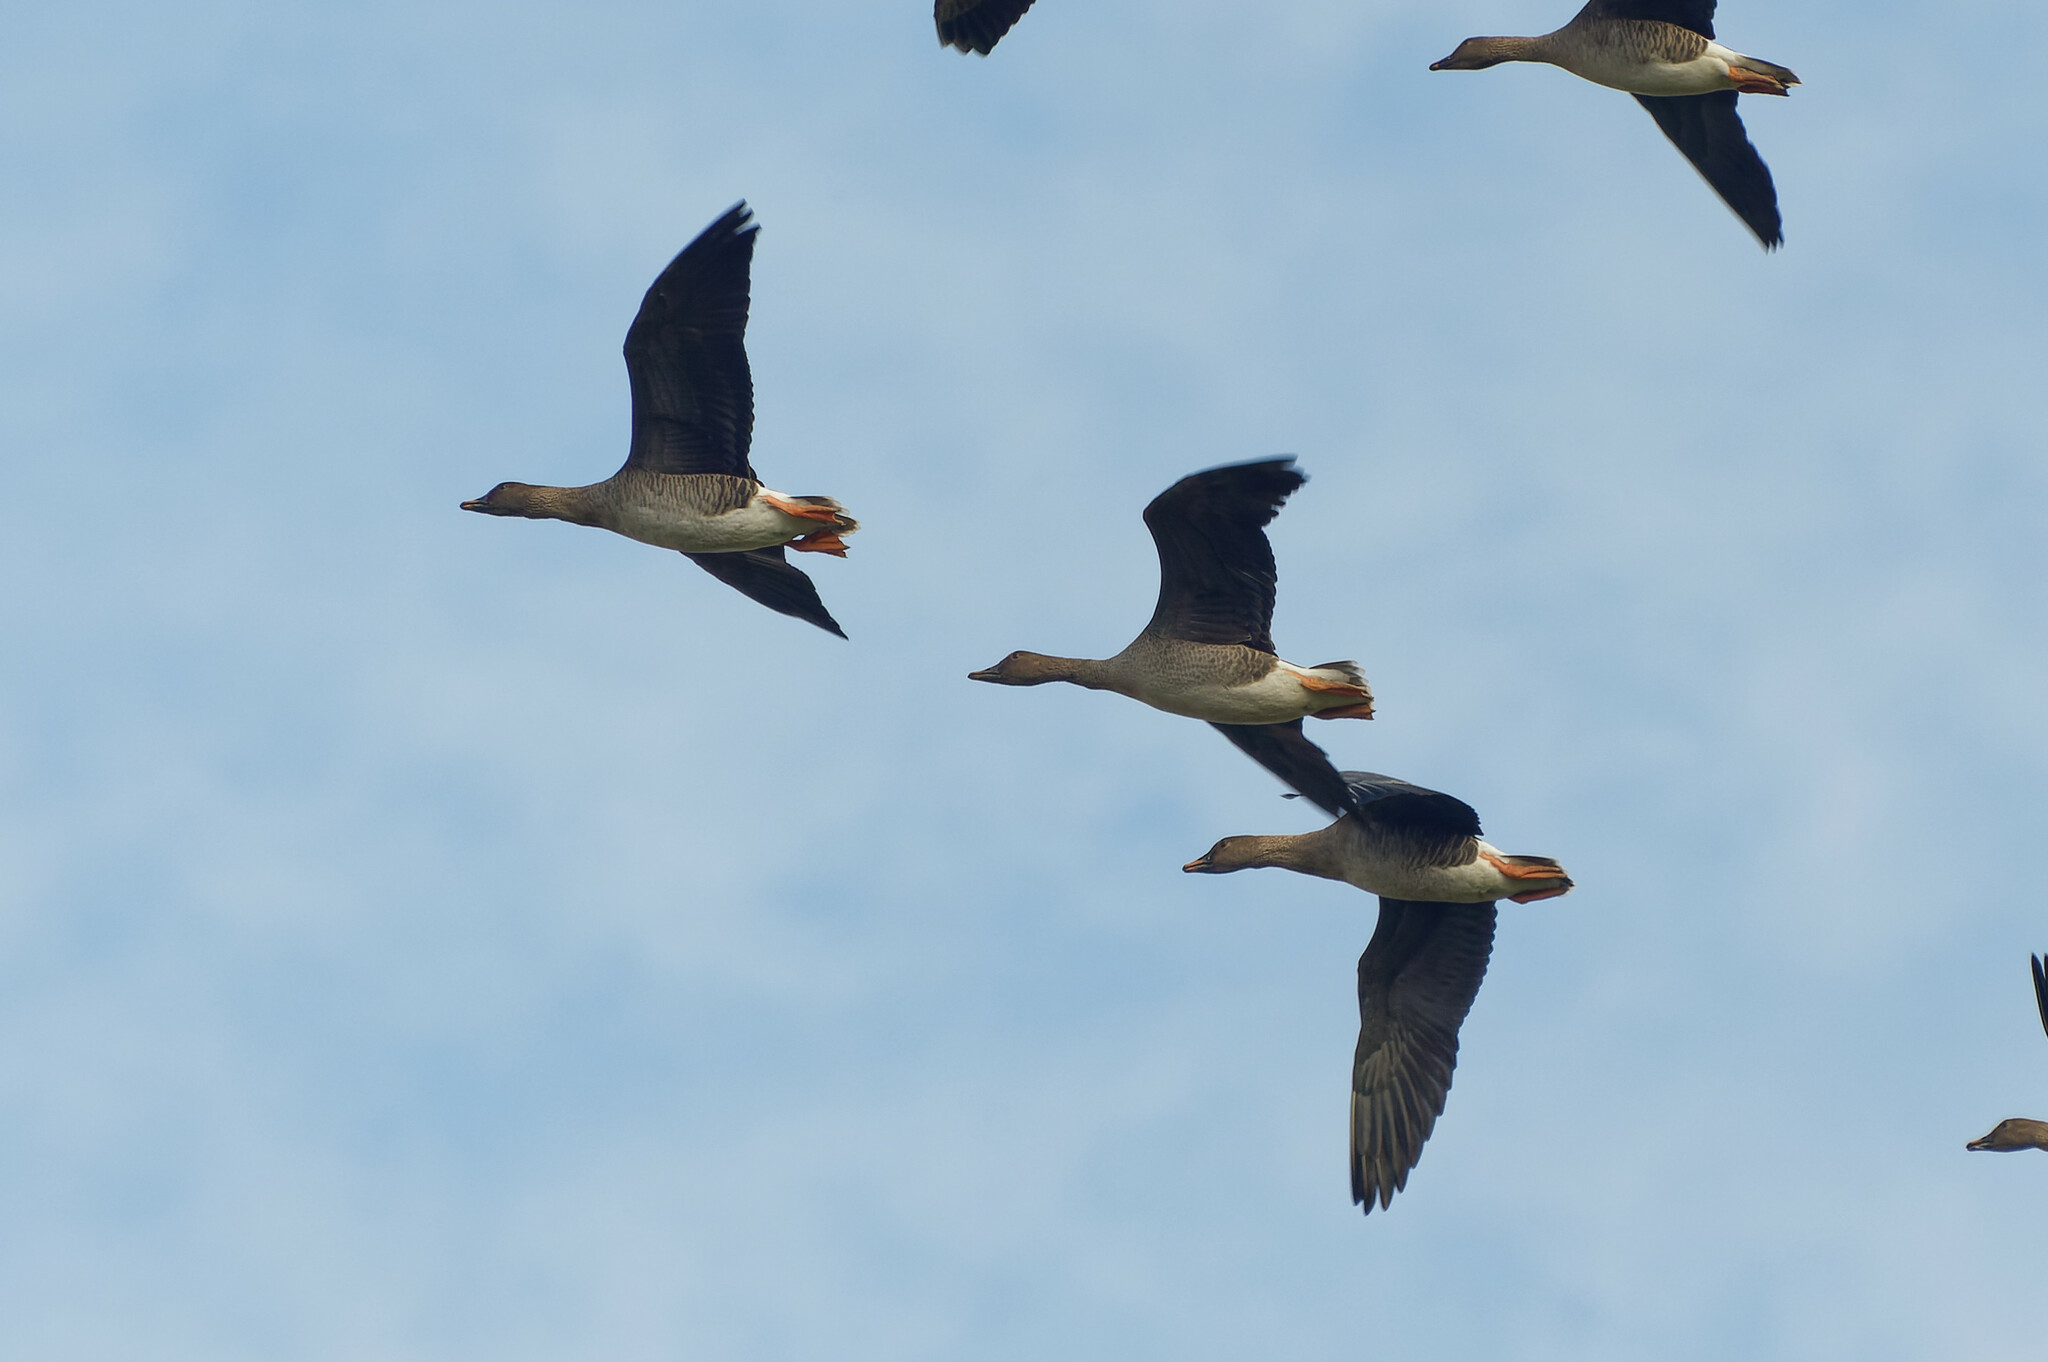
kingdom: Animalia
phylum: Chordata
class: Aves
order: Anseriformes
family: Anatidae
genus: Anser
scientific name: Anser serrirostris
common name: Tundra bean goose
